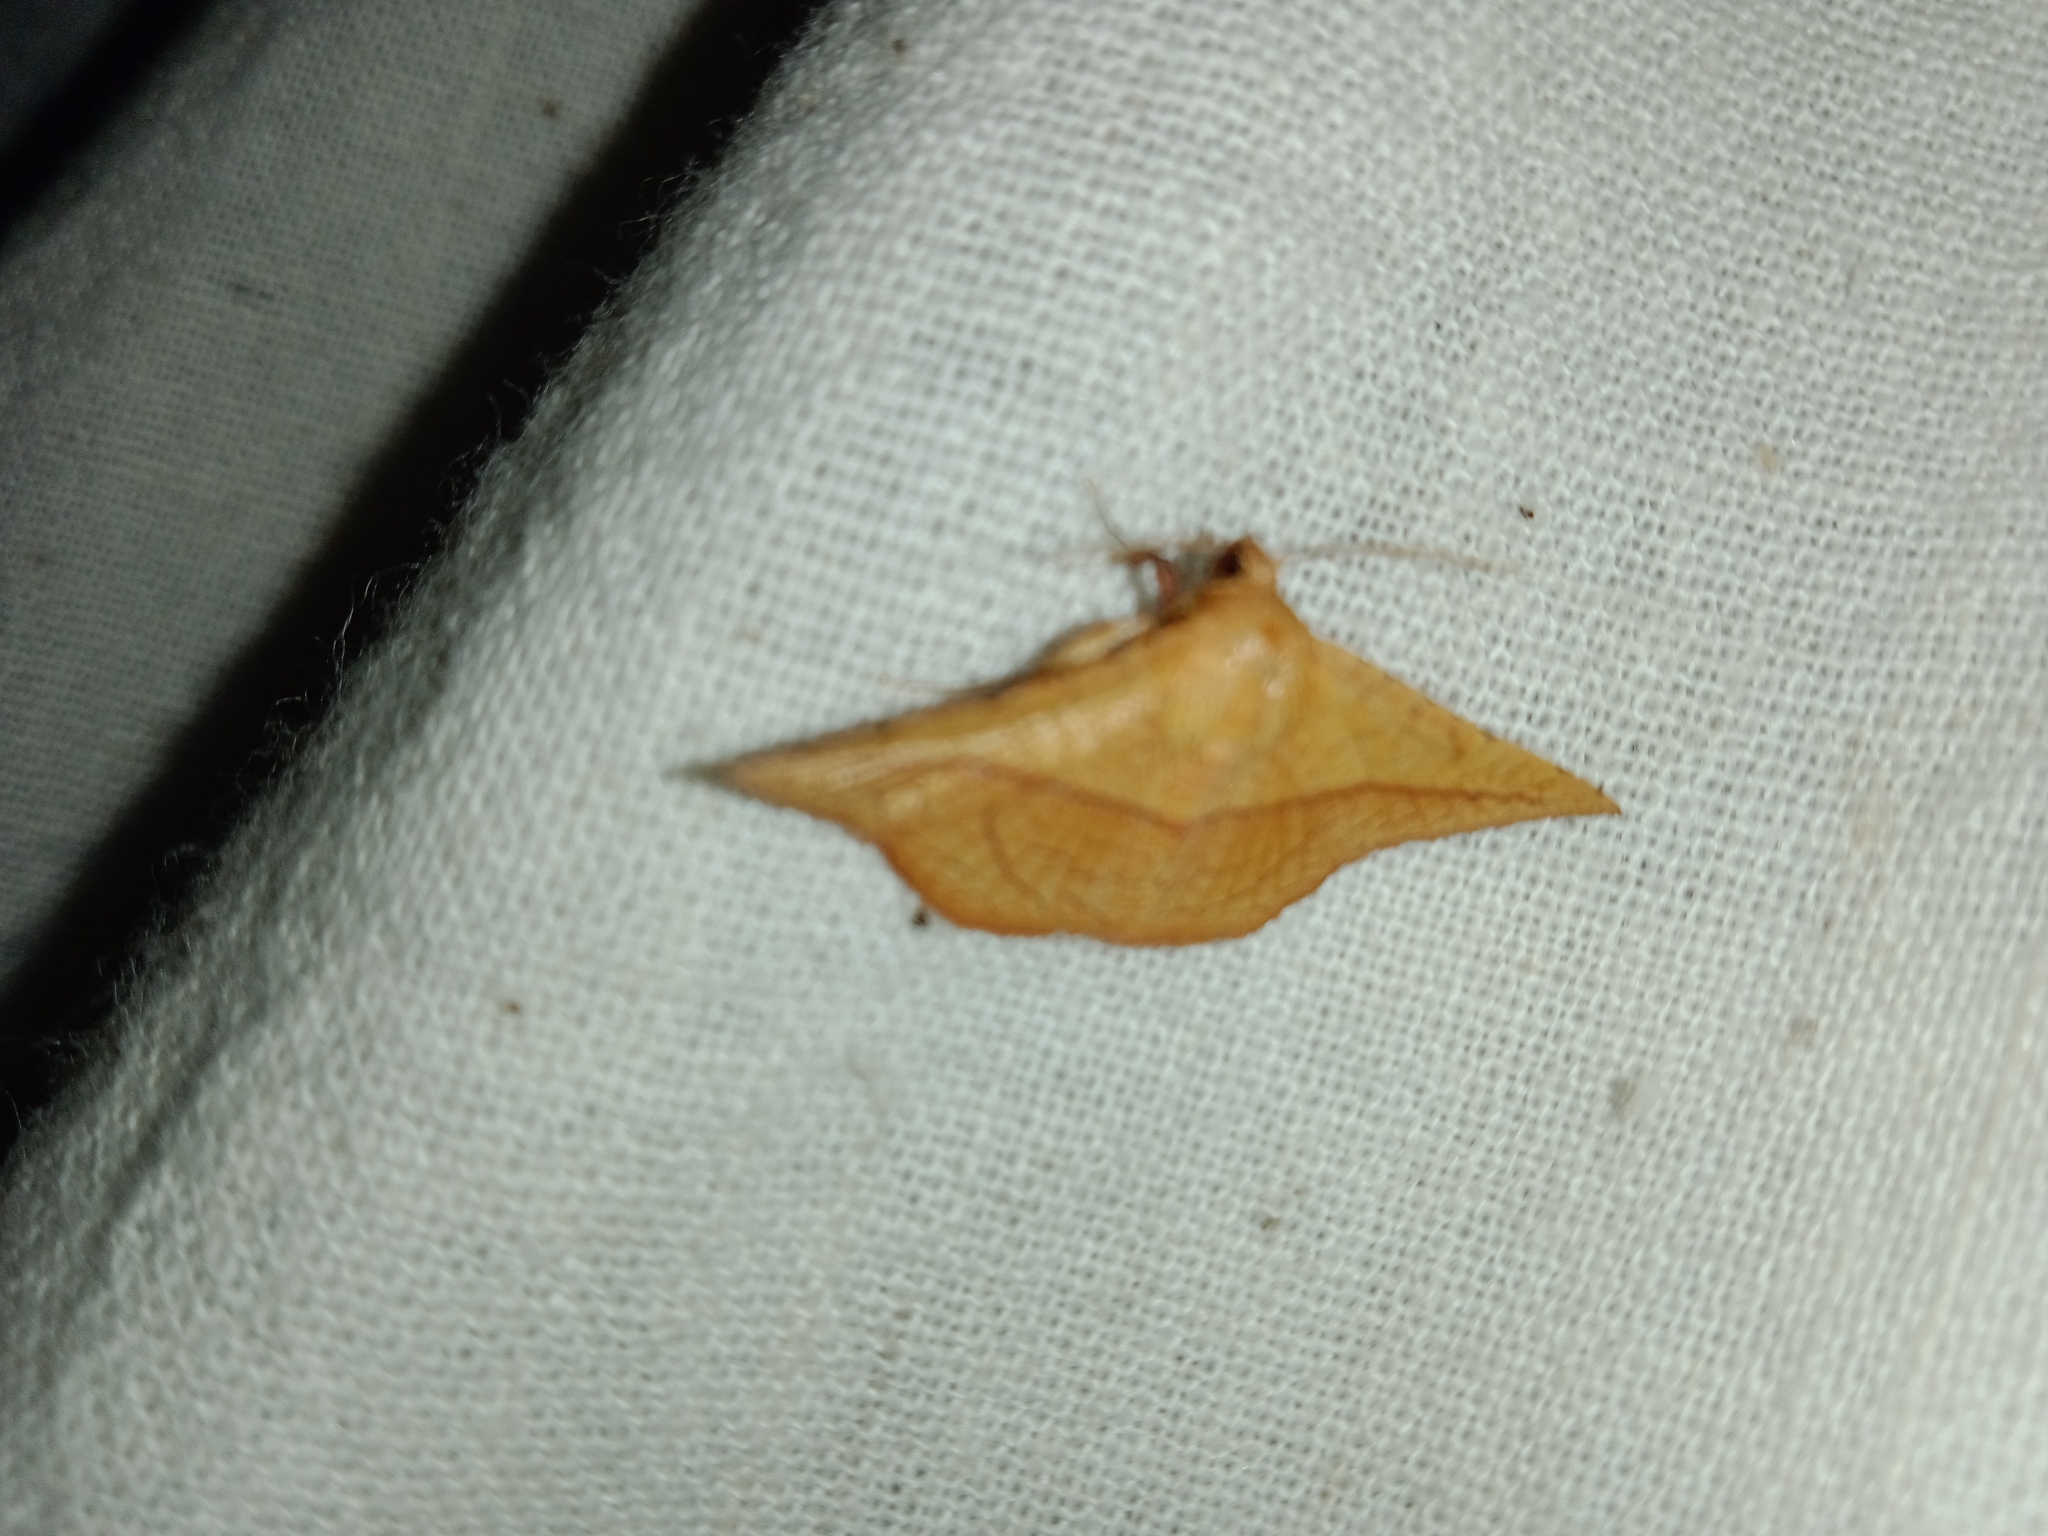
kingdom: Animalia
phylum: Arthropoda
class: Insecta
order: Lepidoptera
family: Thyrididae
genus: Striglina
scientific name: Striglina scitaria
